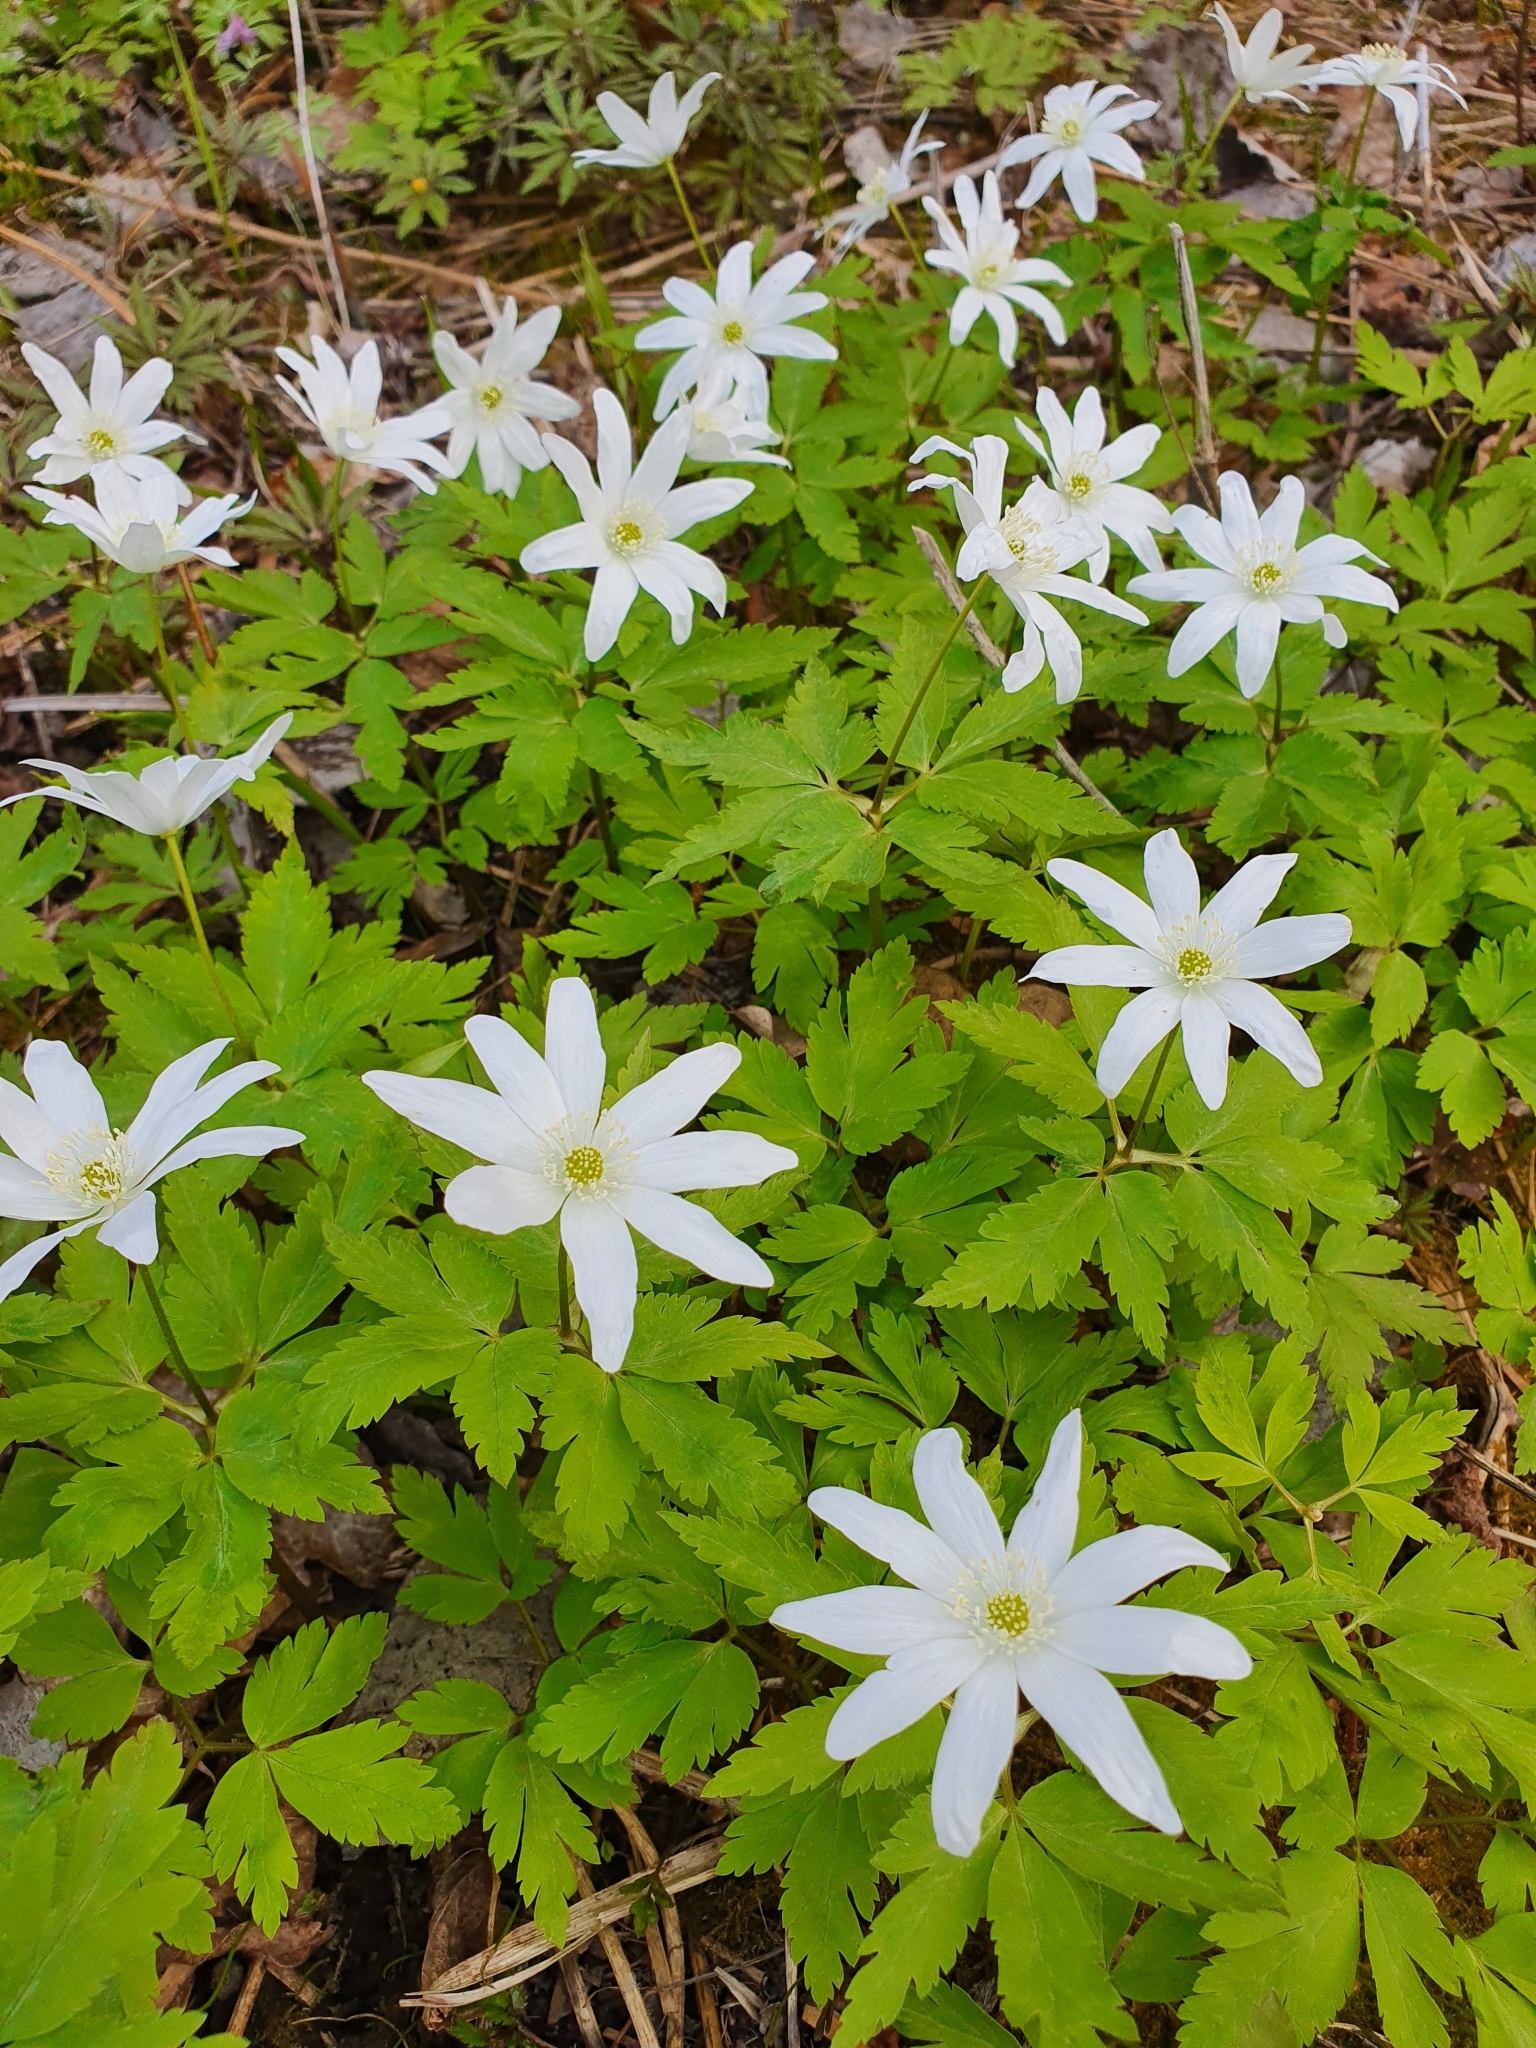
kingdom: Plantae
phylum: Tracheophyta
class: Magnoliopsida
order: Ranunculales
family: Ranunculaceae
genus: Anemone
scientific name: Anemone altaica
